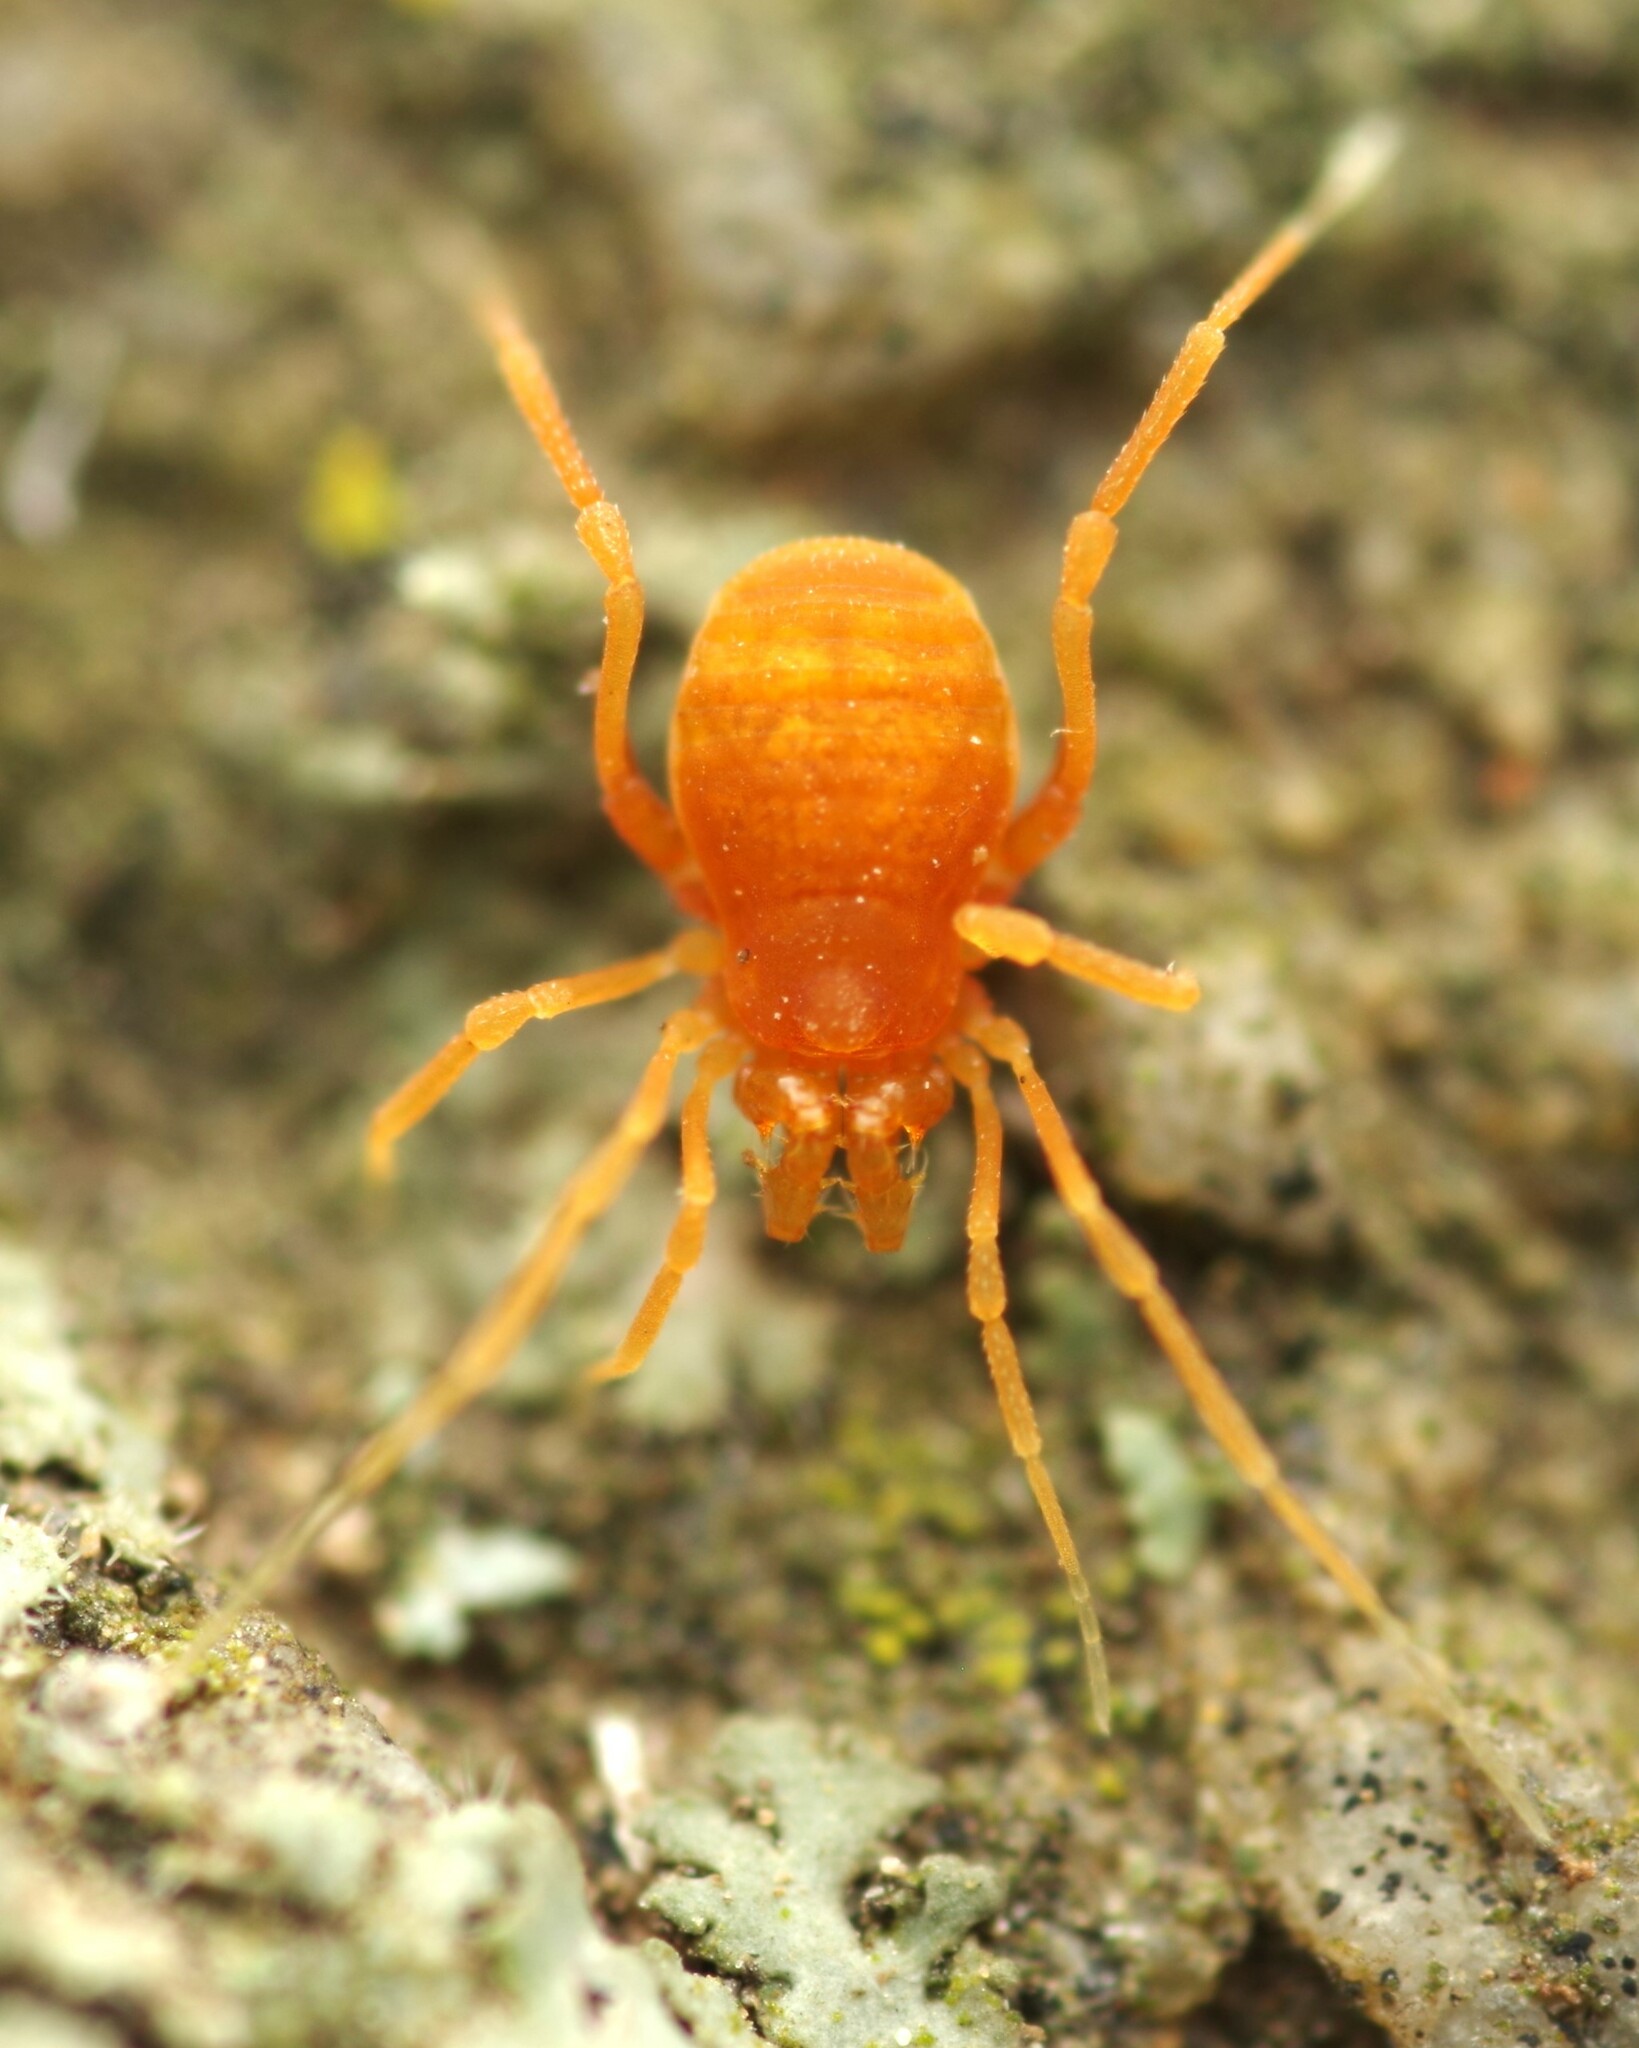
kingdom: Animalia
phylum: Arthropoda
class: Arachnida
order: Opiliones
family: Phalangodidae
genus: Scotolemon
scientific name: Scotolemon doriae
